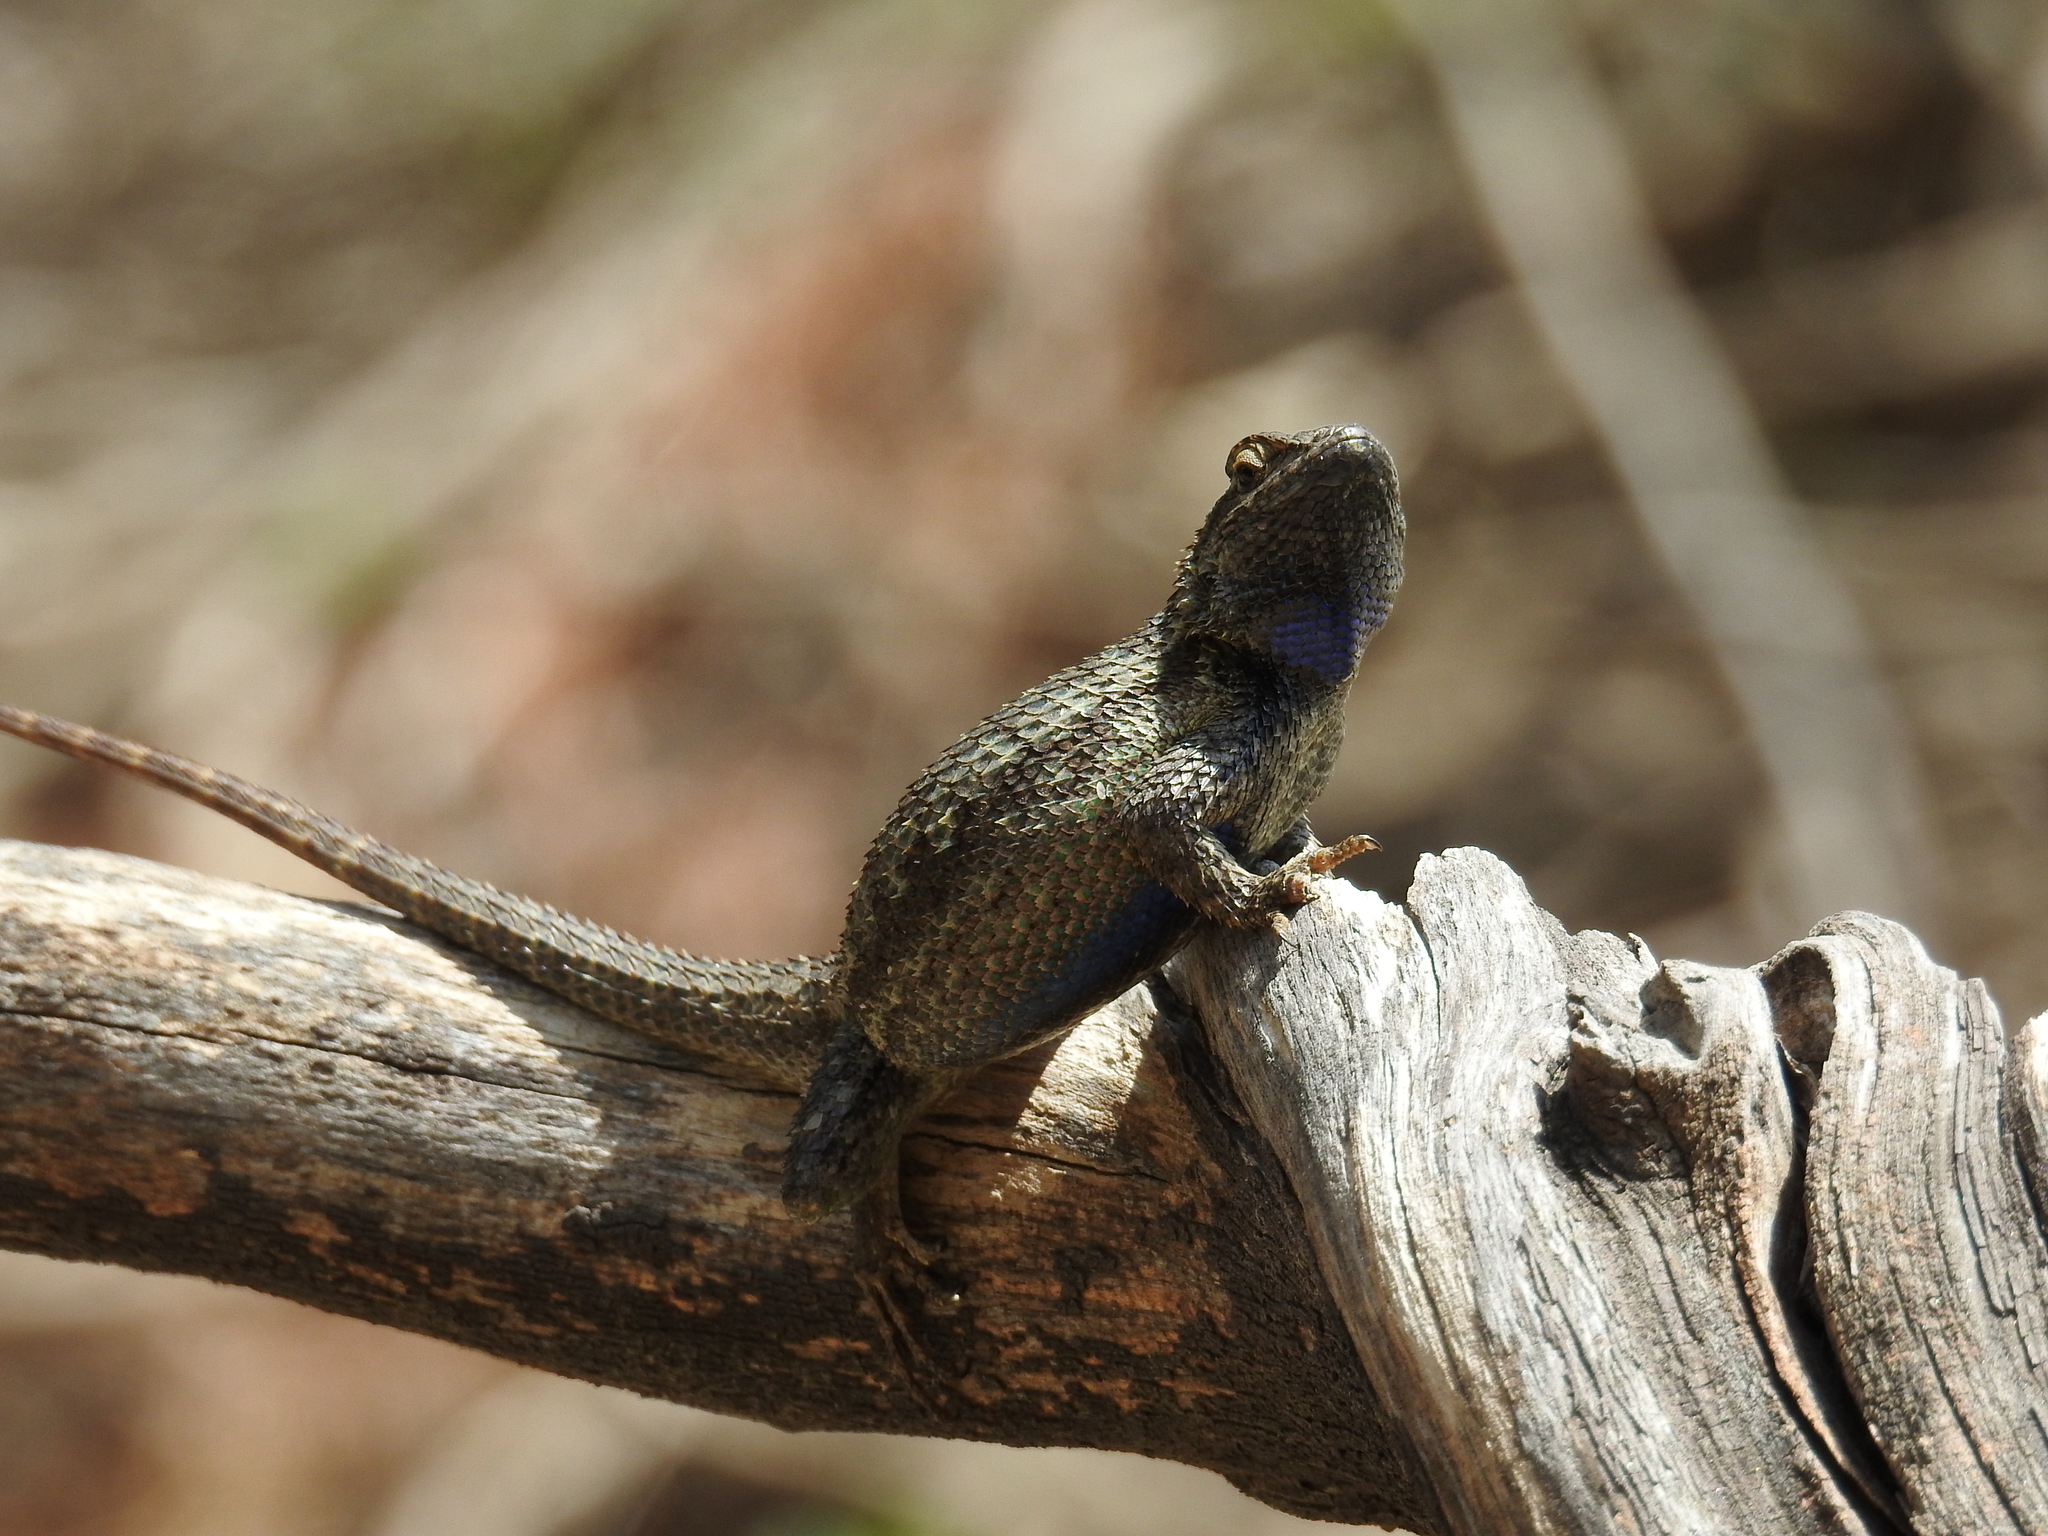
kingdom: Animalia
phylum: Chordata
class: Squamata
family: Phrynosomatidae
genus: Sceloporus
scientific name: Sceloporus occidentalis
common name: Western fence lizard
